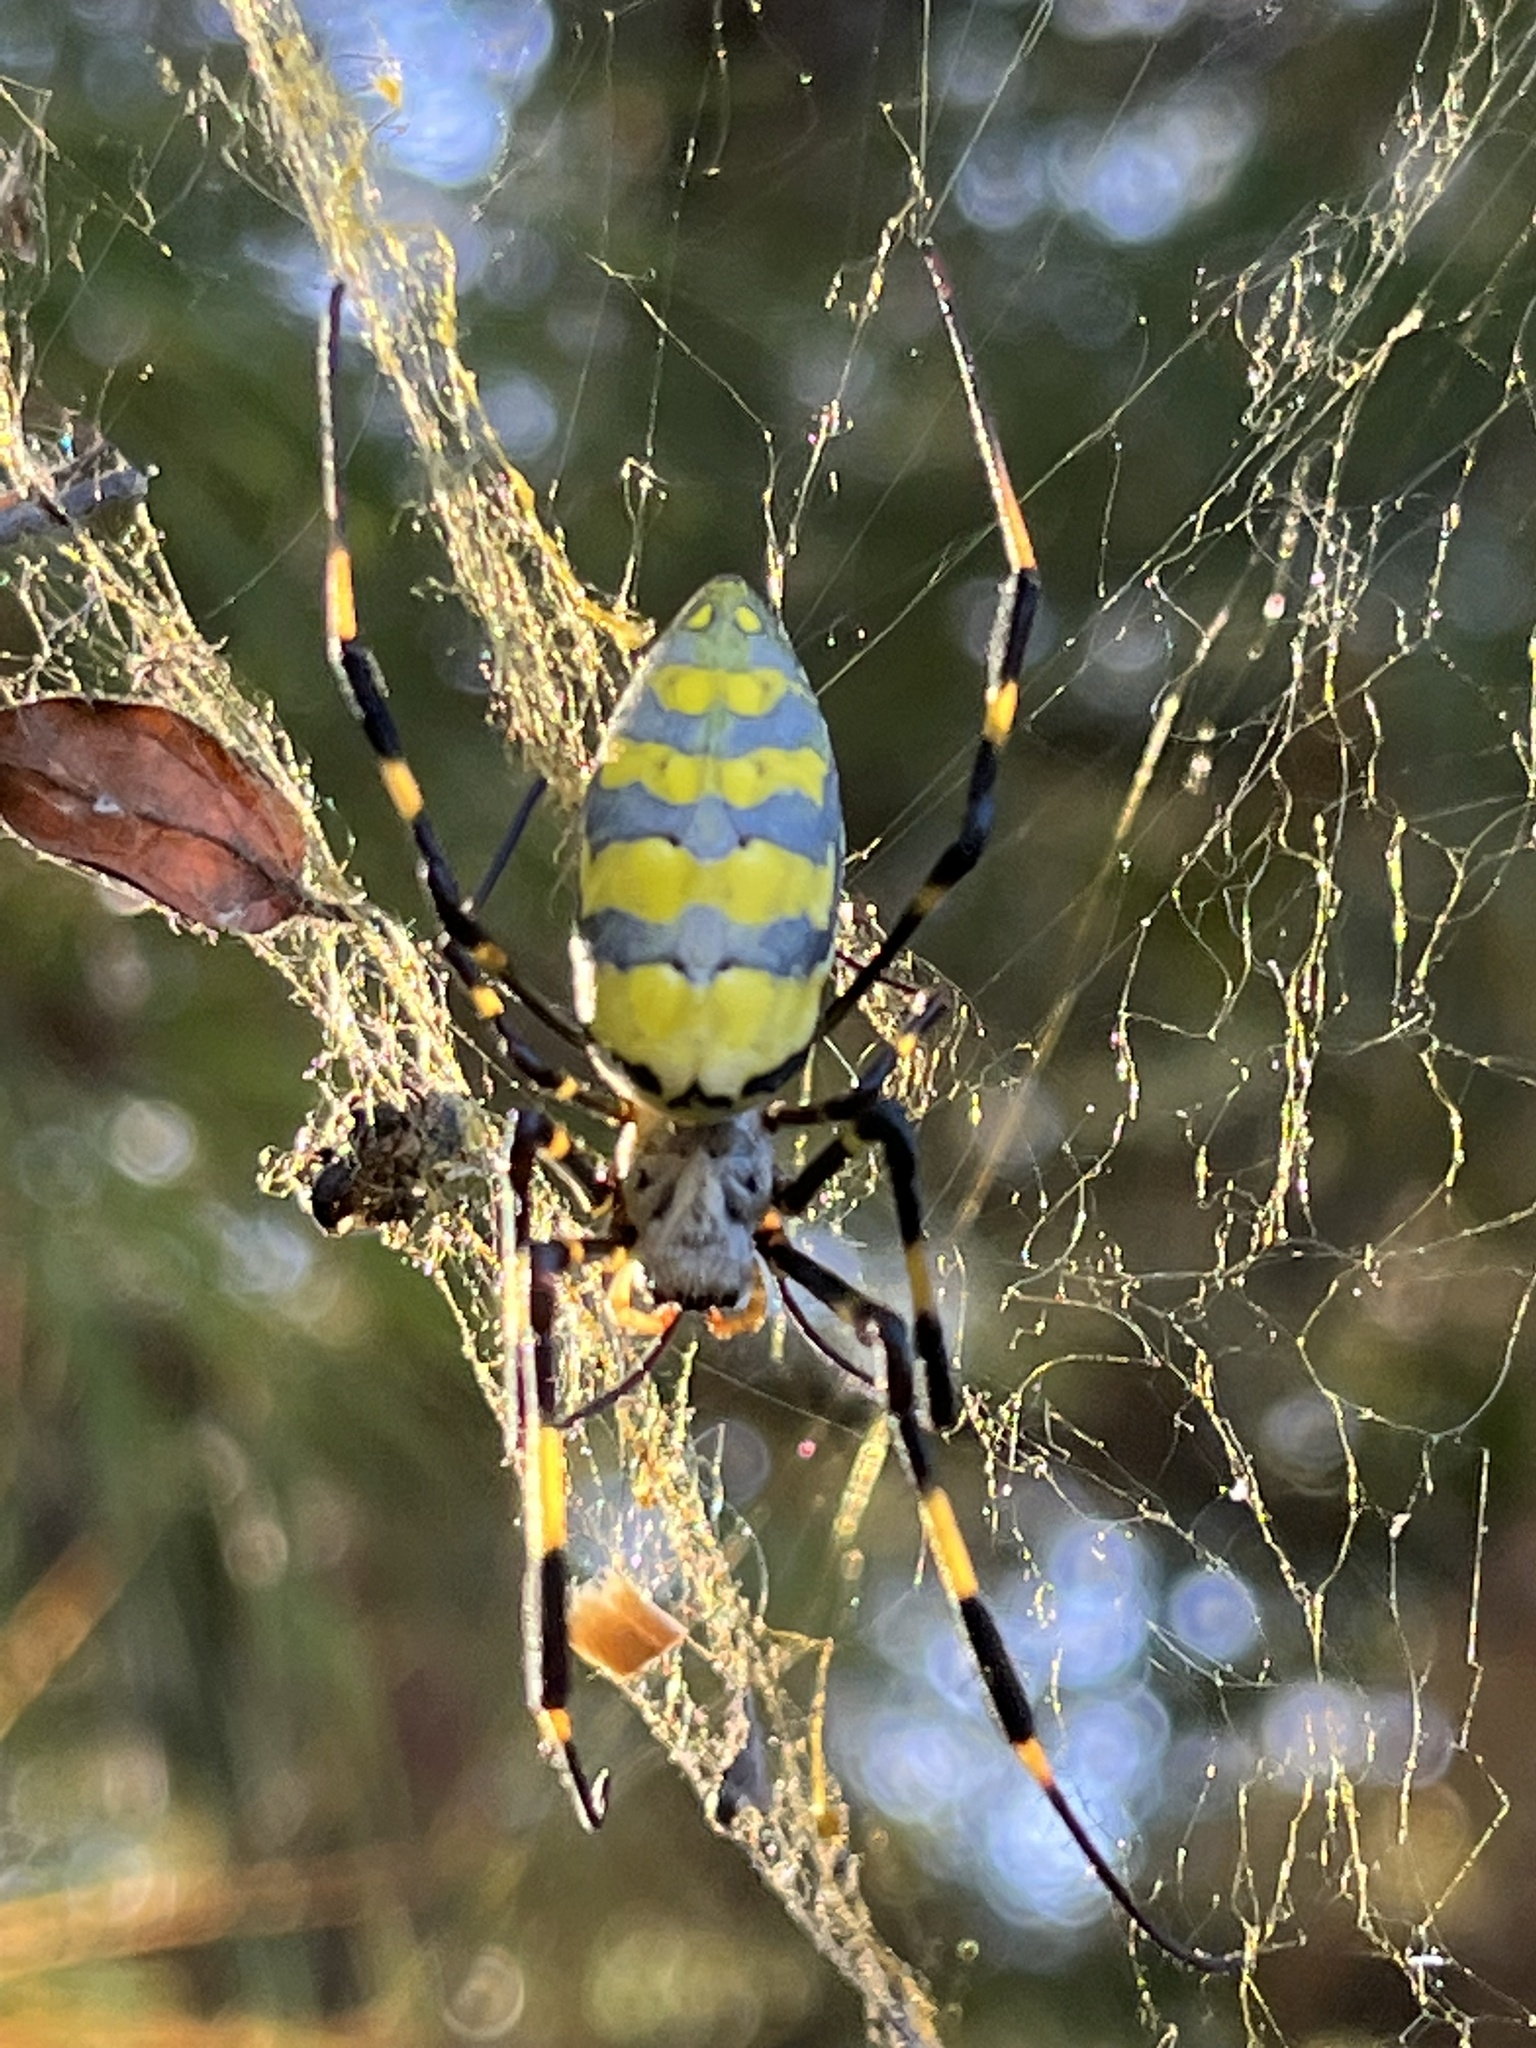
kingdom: Animalia
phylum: Arthropoda
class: Arachnida
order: Araneae
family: Araneidae
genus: Trichonephila
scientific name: Trichonephila clavata
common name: Jorō spider
